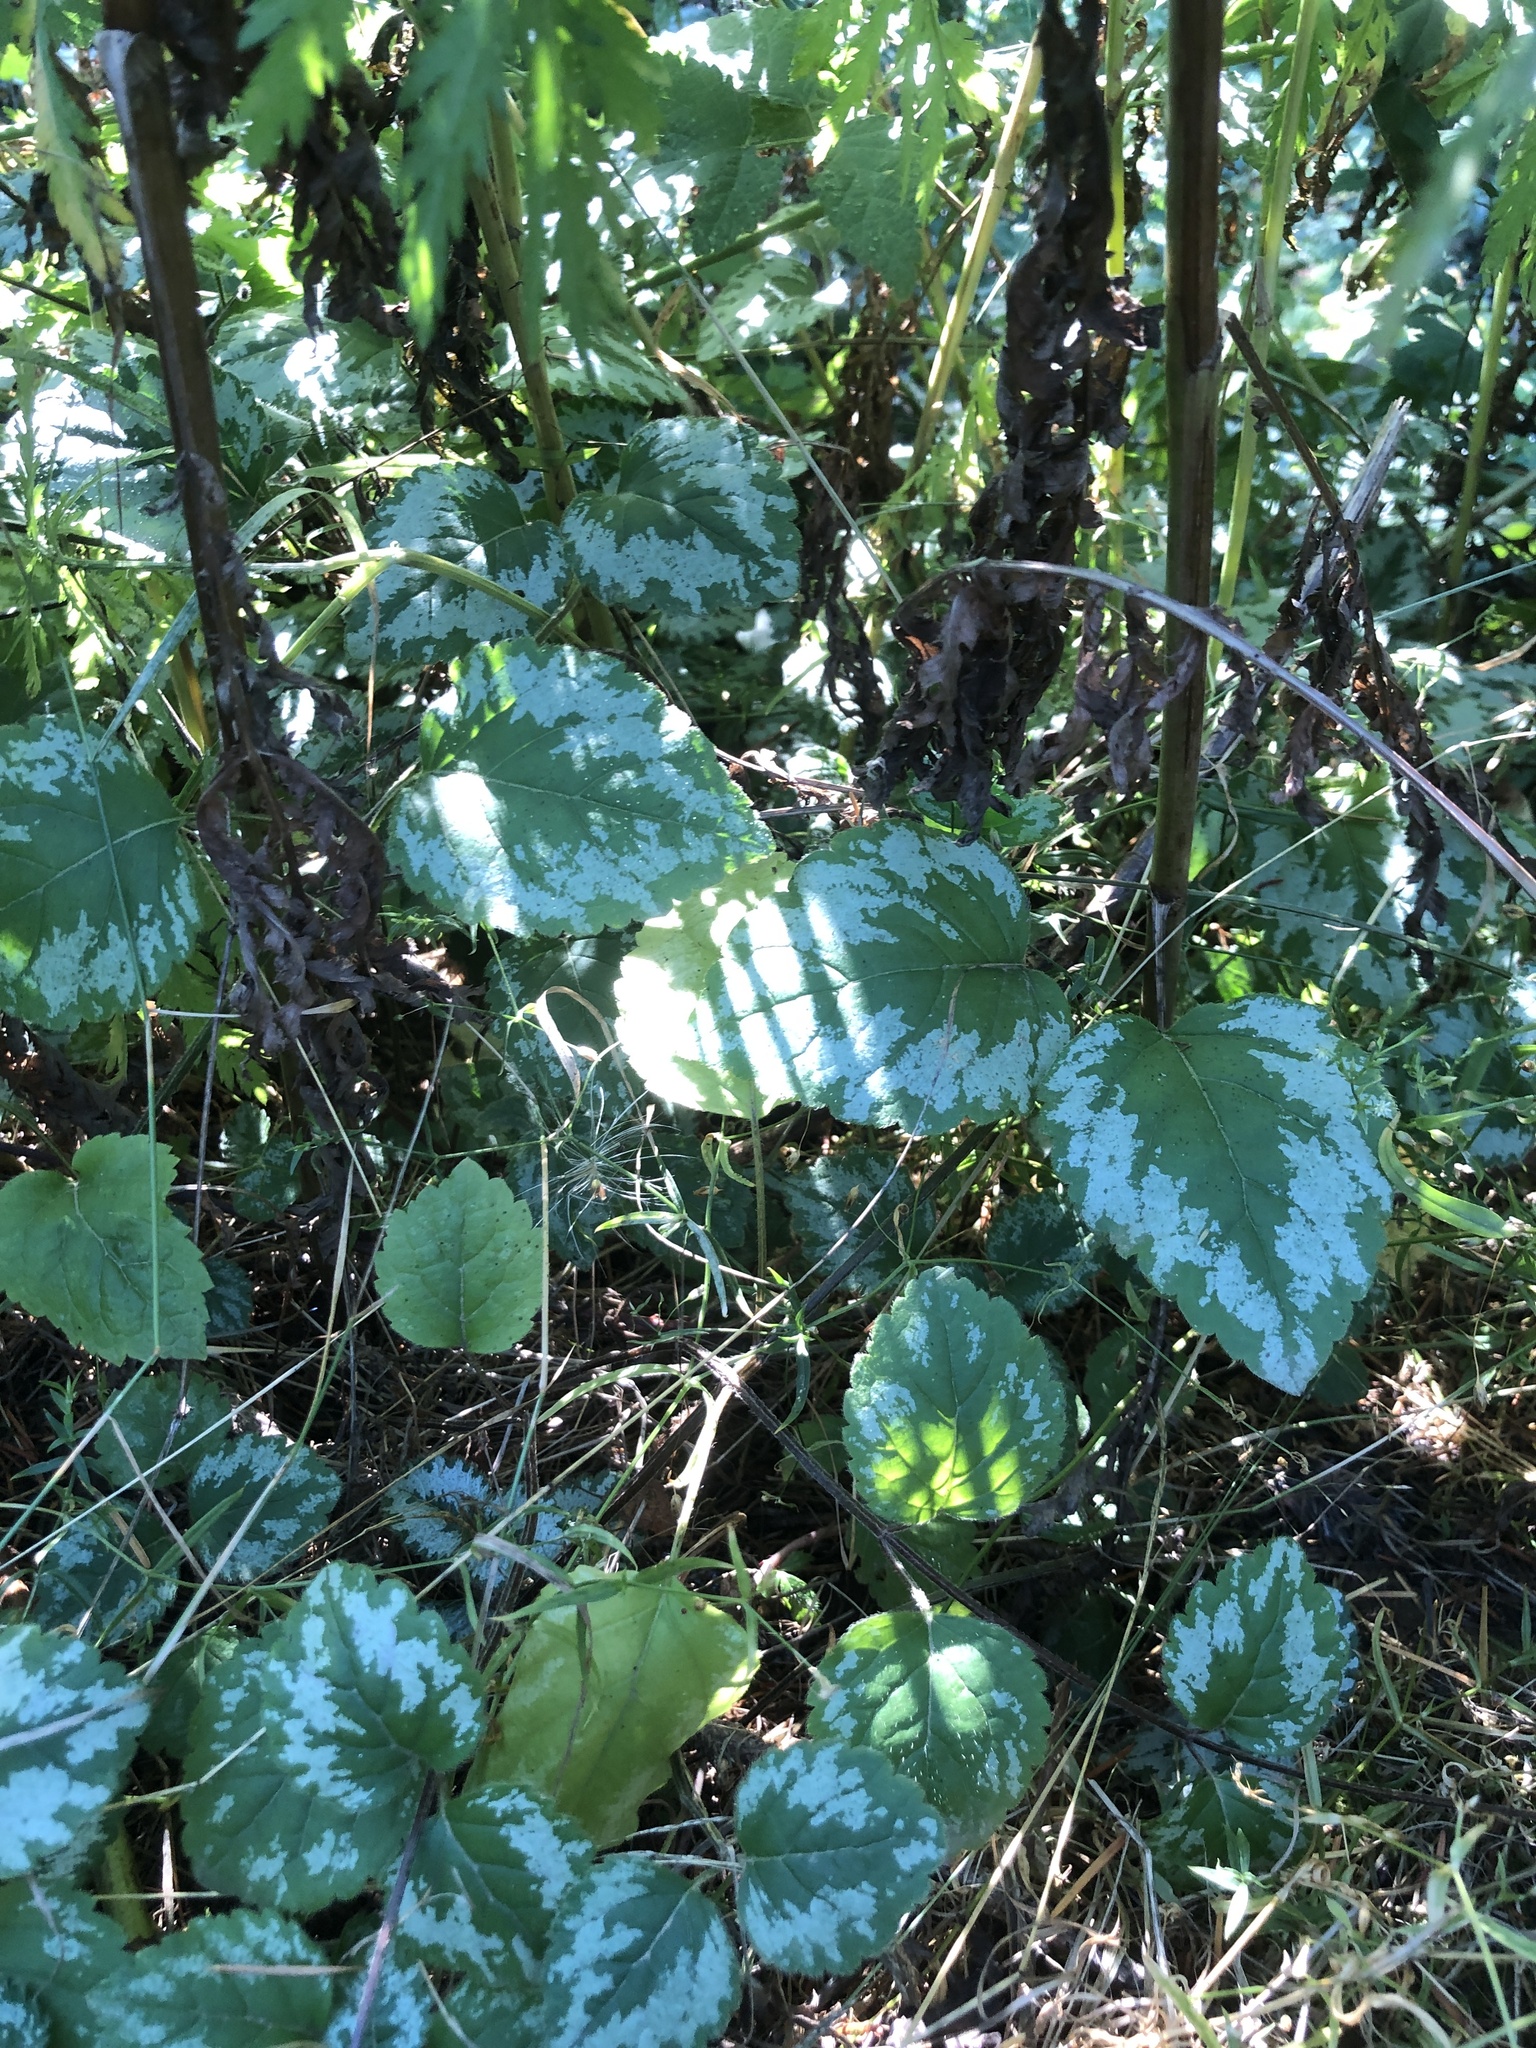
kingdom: Plantae
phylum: Tracheophyta
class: Magnoliopsida
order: Lamiales
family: Lamiaceae
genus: Lamium
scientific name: Lamium galeobdolon
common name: Yellow archangel
